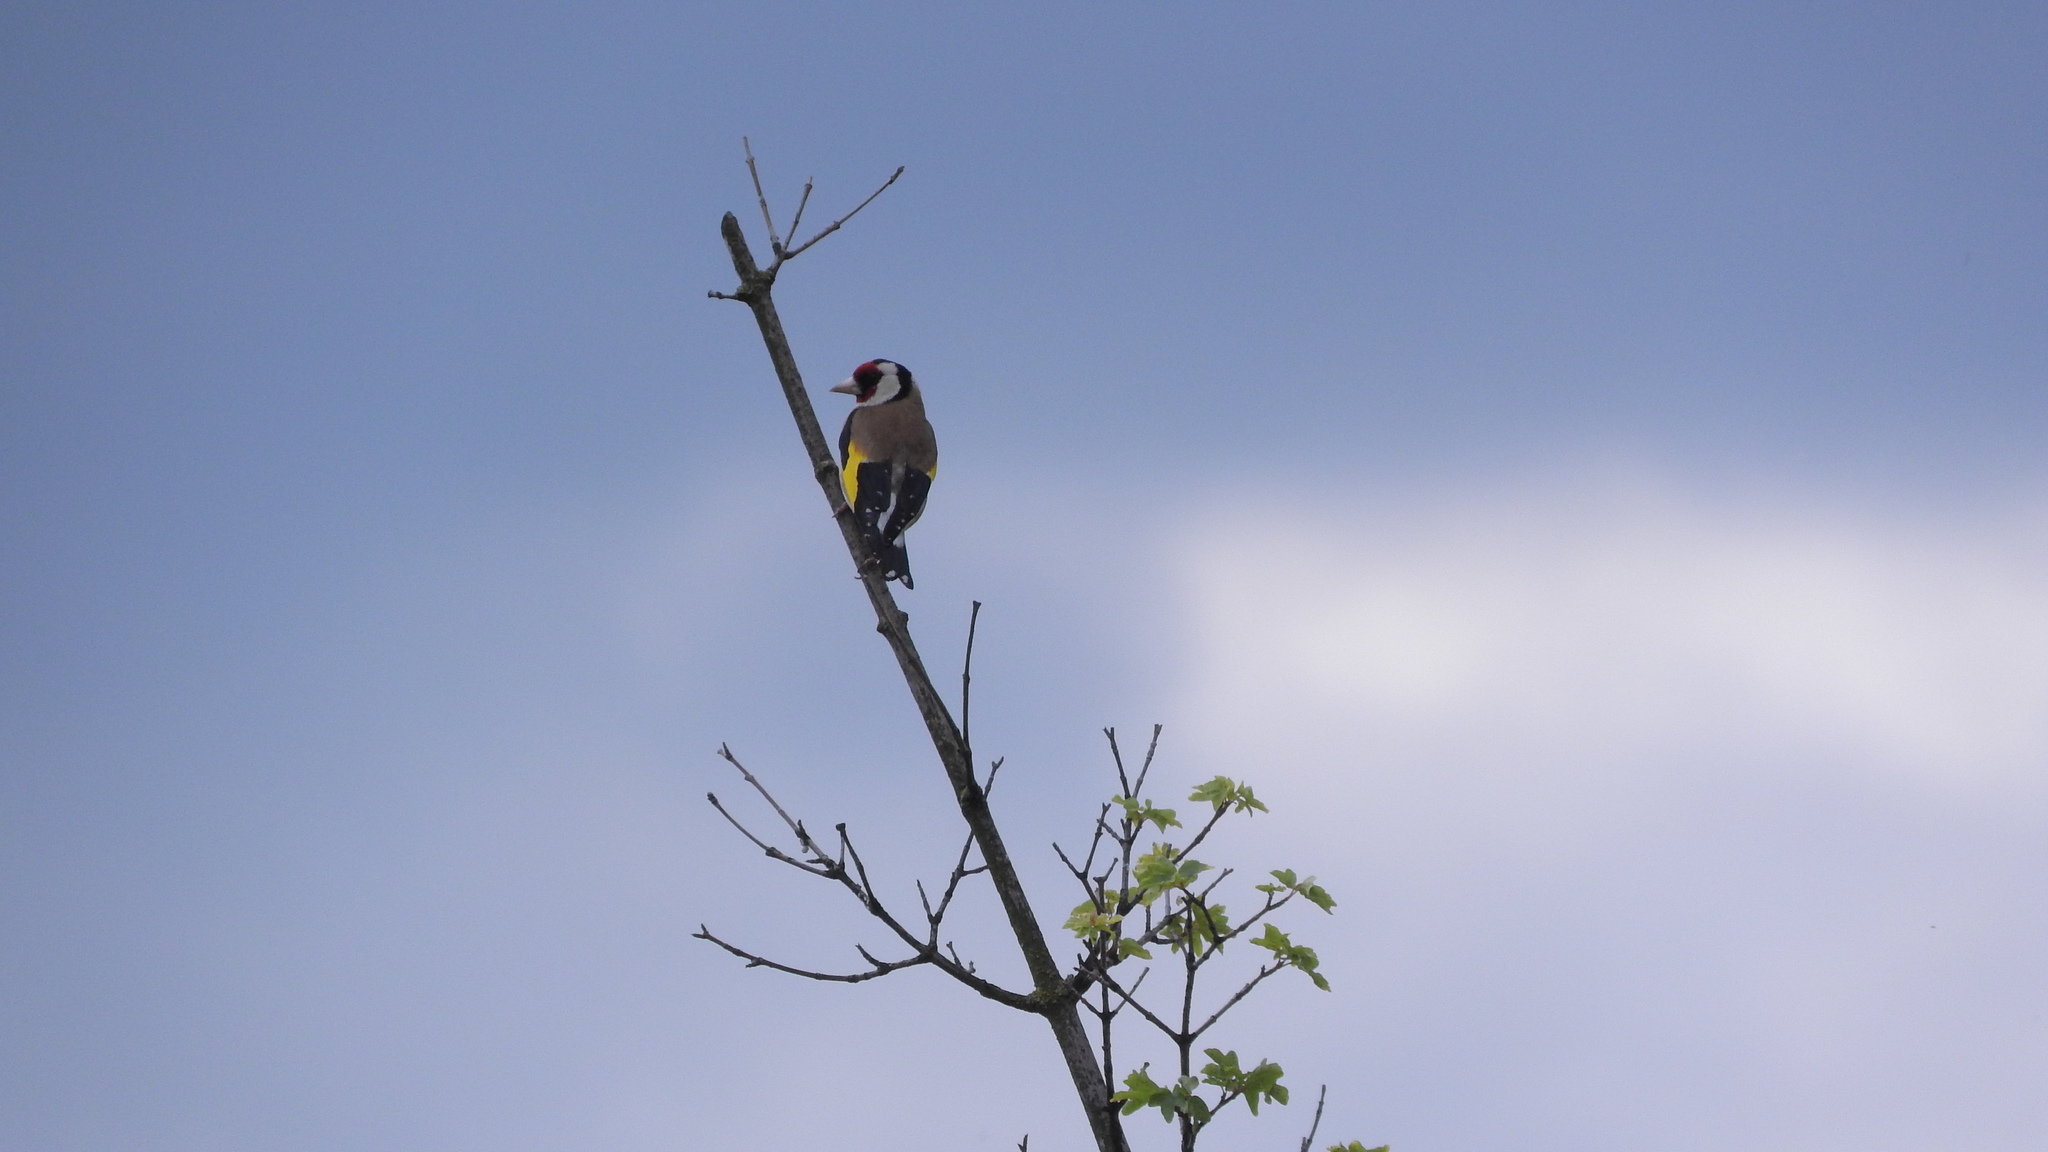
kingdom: Animalia
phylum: Chordata
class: Aves
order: Passeriformes
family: Fringillidae
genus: Carduelis
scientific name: Carduelis carduelis
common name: European goldfinch
